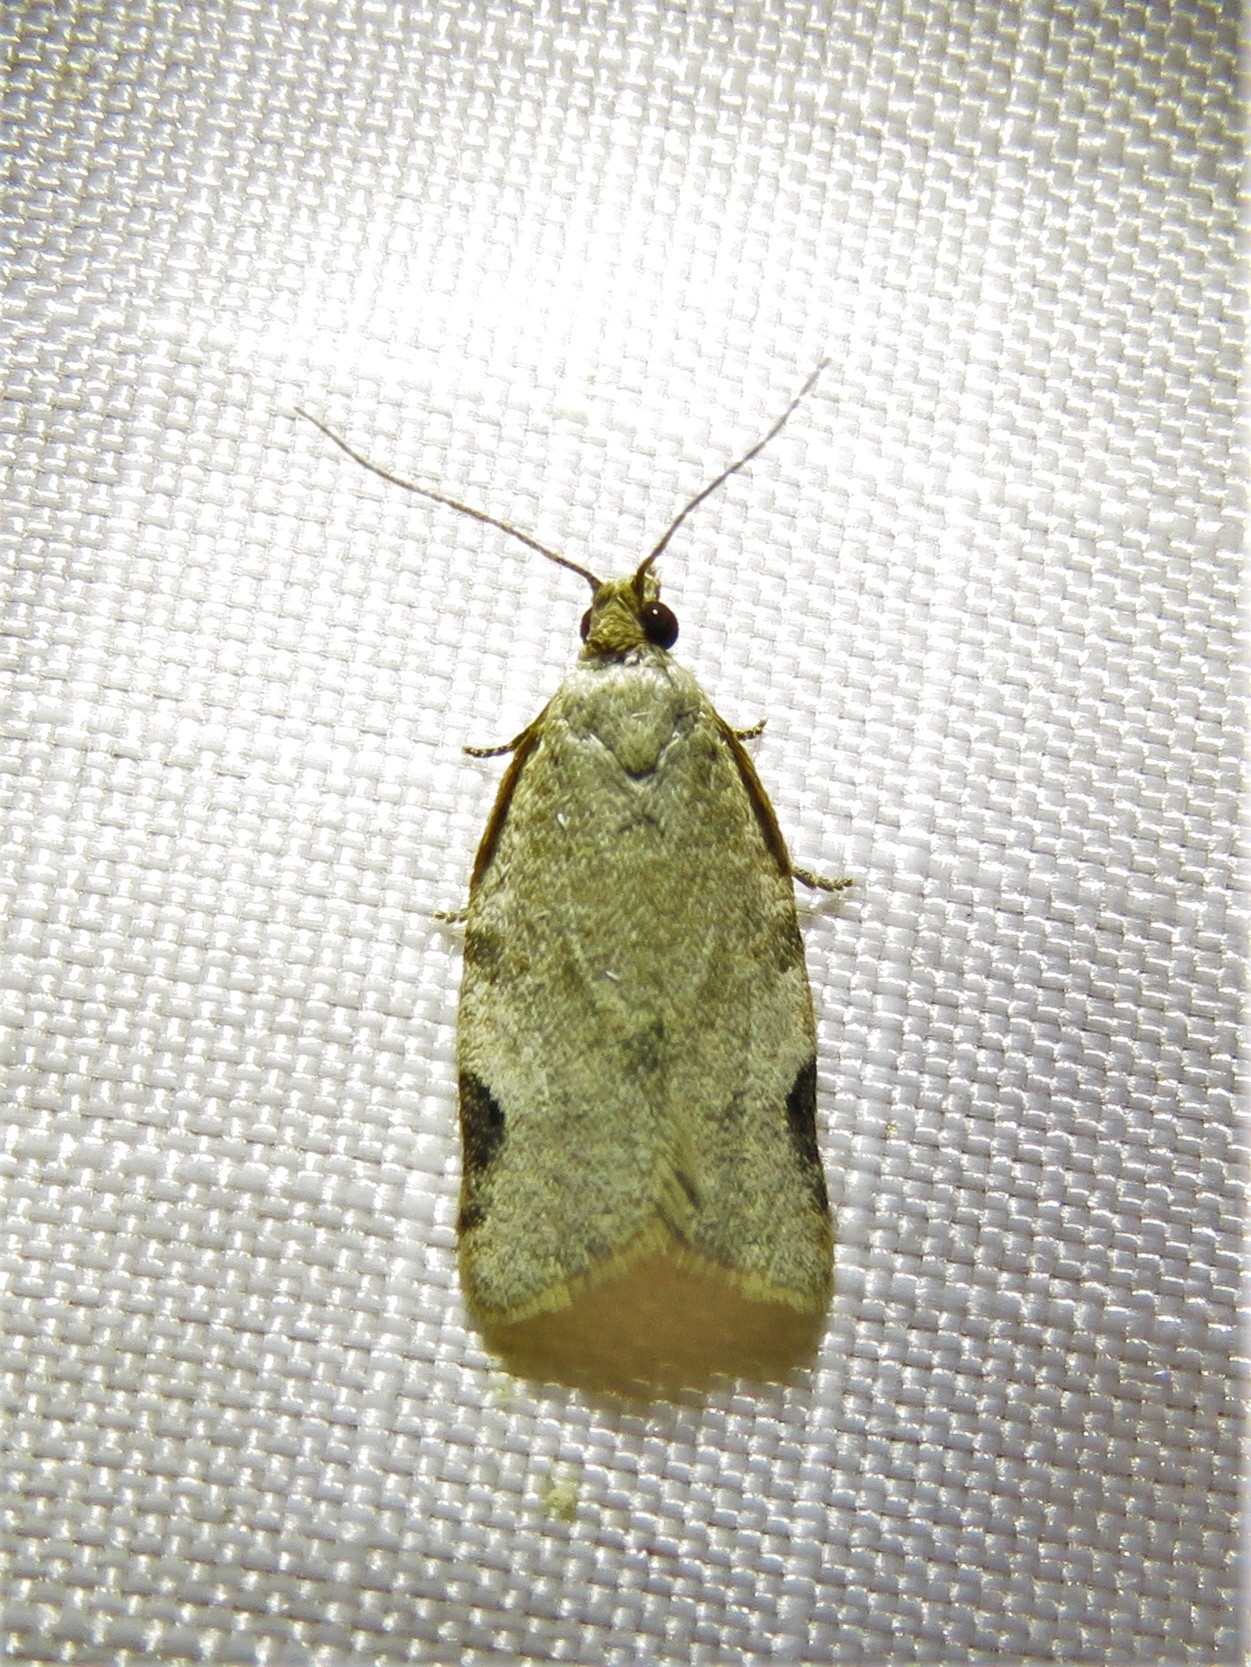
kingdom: Animalia
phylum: Arthropoda
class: Insecta
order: Lepidoptera
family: Tortricidae
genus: Clepsis
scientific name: Clepsis virescana
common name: Greenish apple moth
